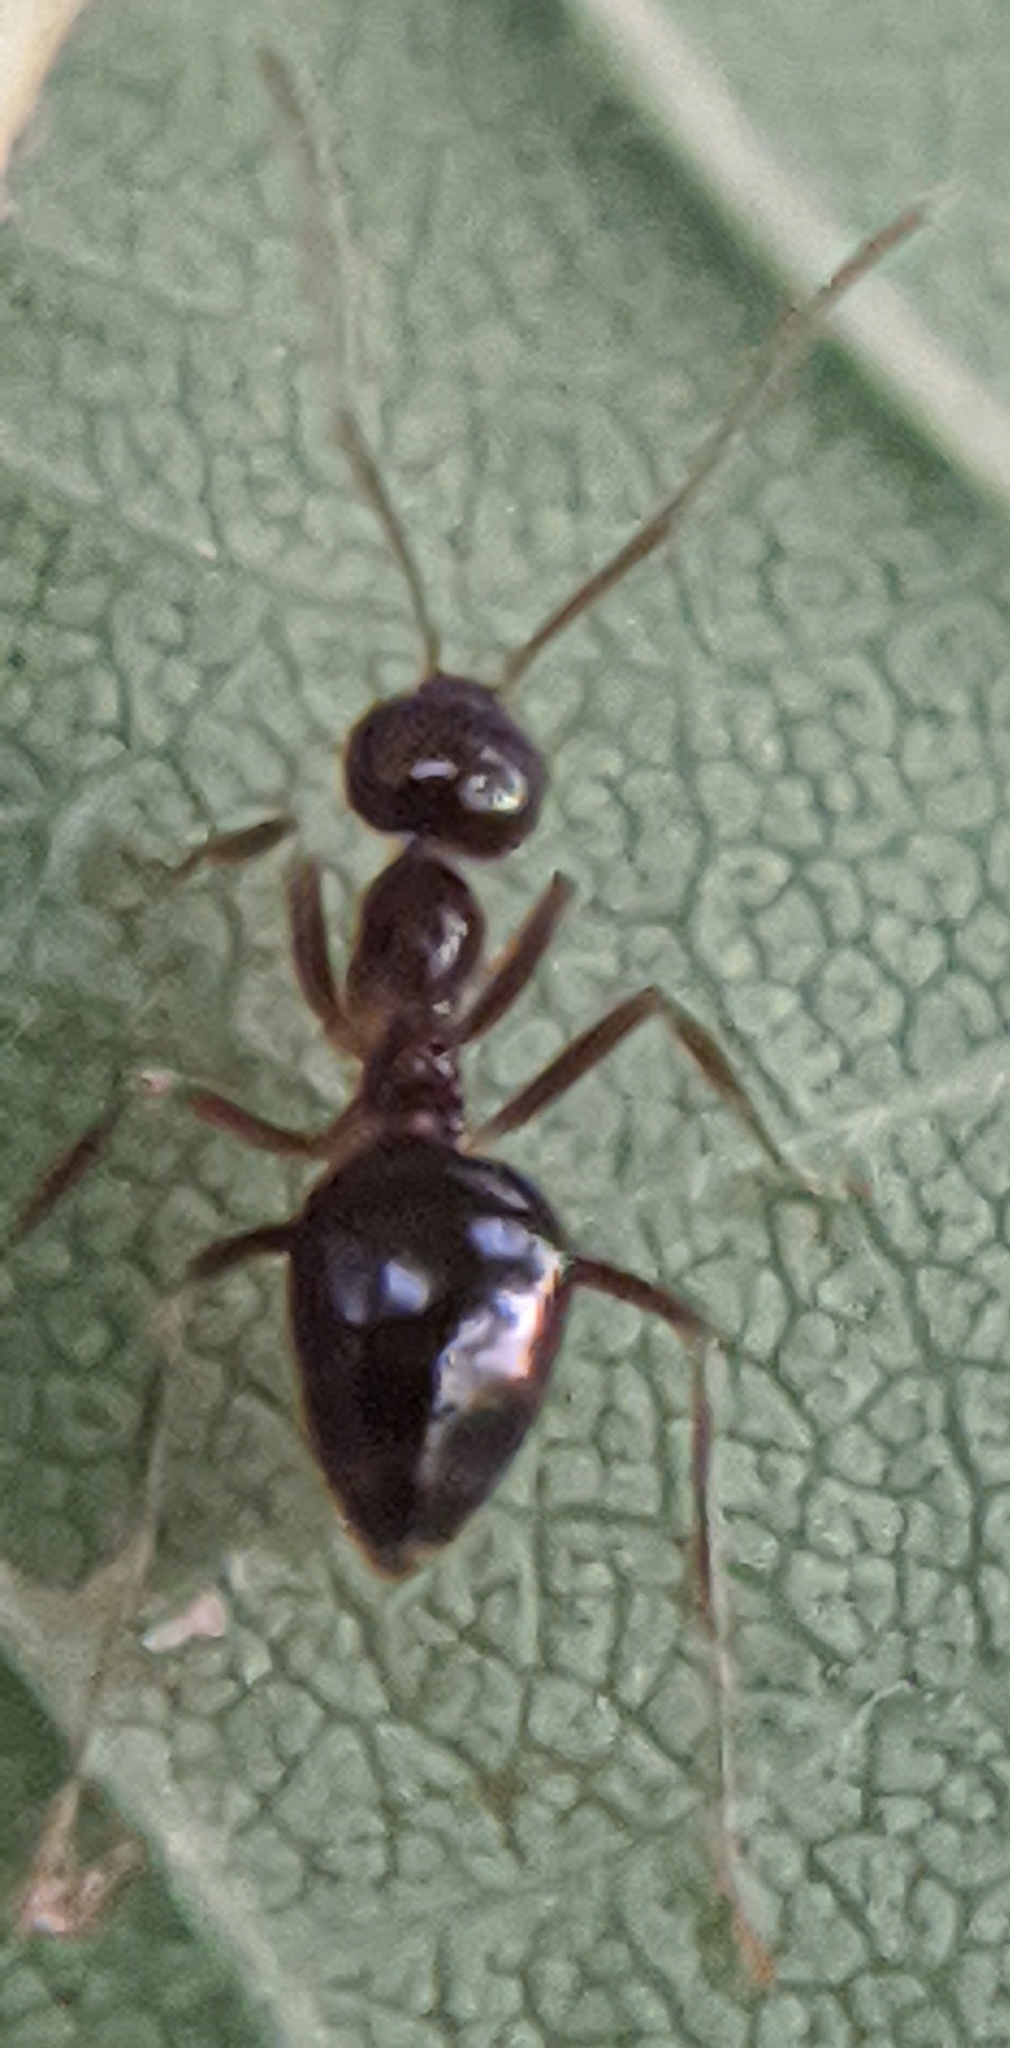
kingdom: Animalia
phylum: Arthropoda
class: Insecta
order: Hymenoptera
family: Formicidae
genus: Prenolepis
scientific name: Prenolepis imparis
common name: Small honey ant
